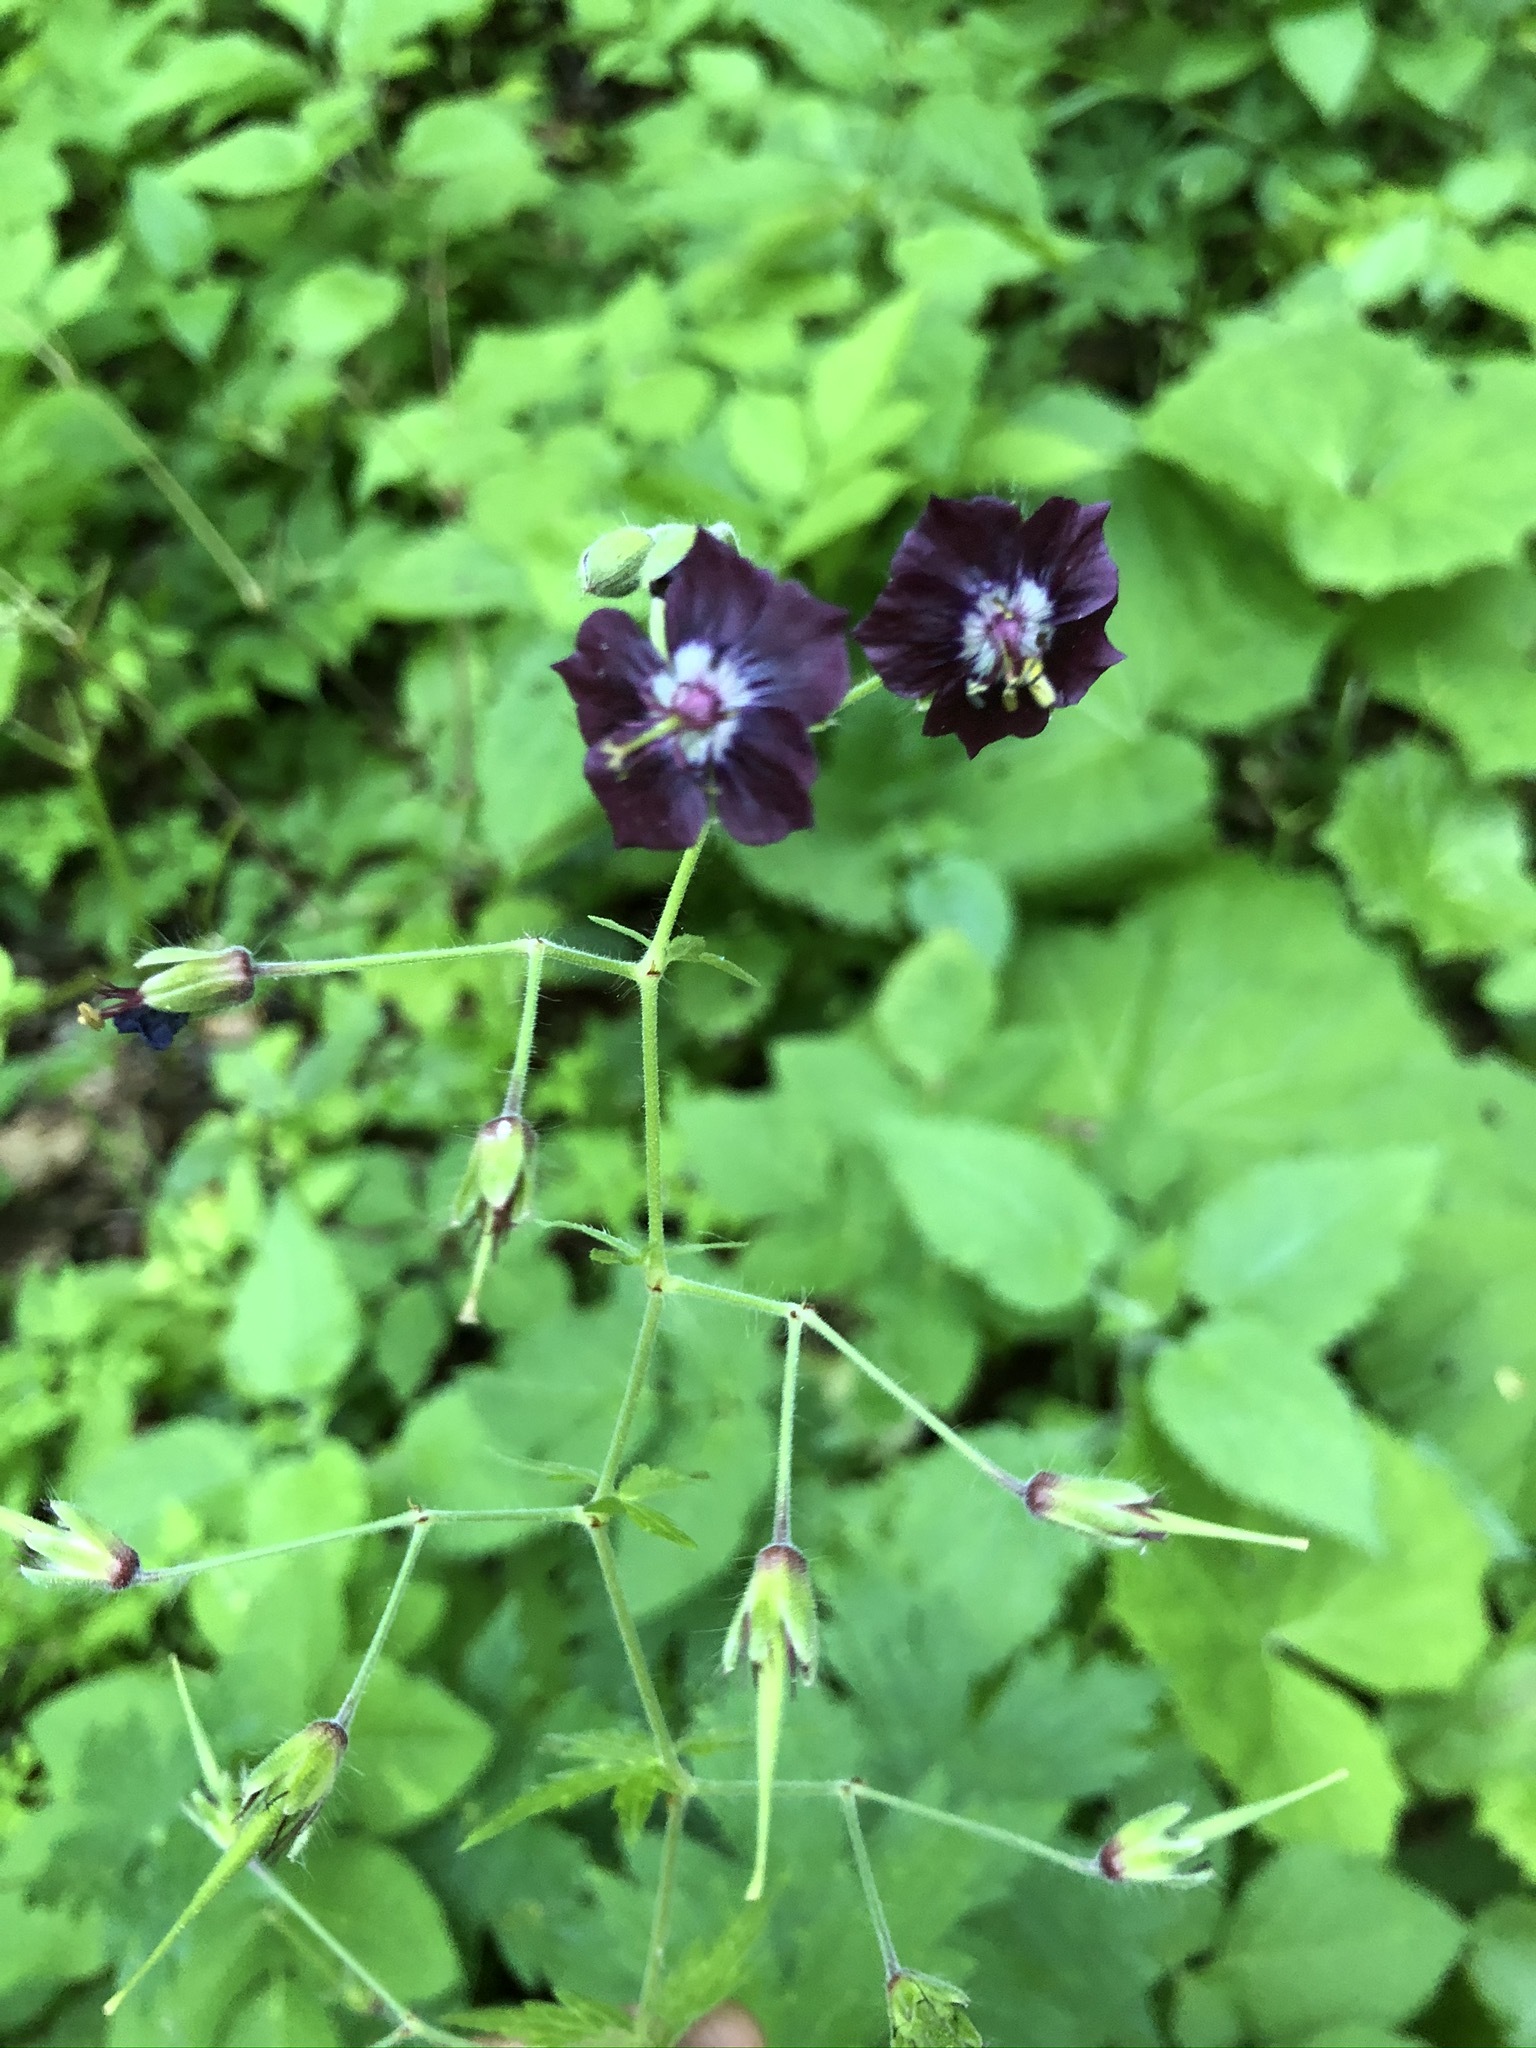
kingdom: Plantae
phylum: Tracheophyta
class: Magnoliopsida
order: Geraniales
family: Geraniaceae
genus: Geranium
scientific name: Geranium phaeum
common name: Dusky crane's-bill
